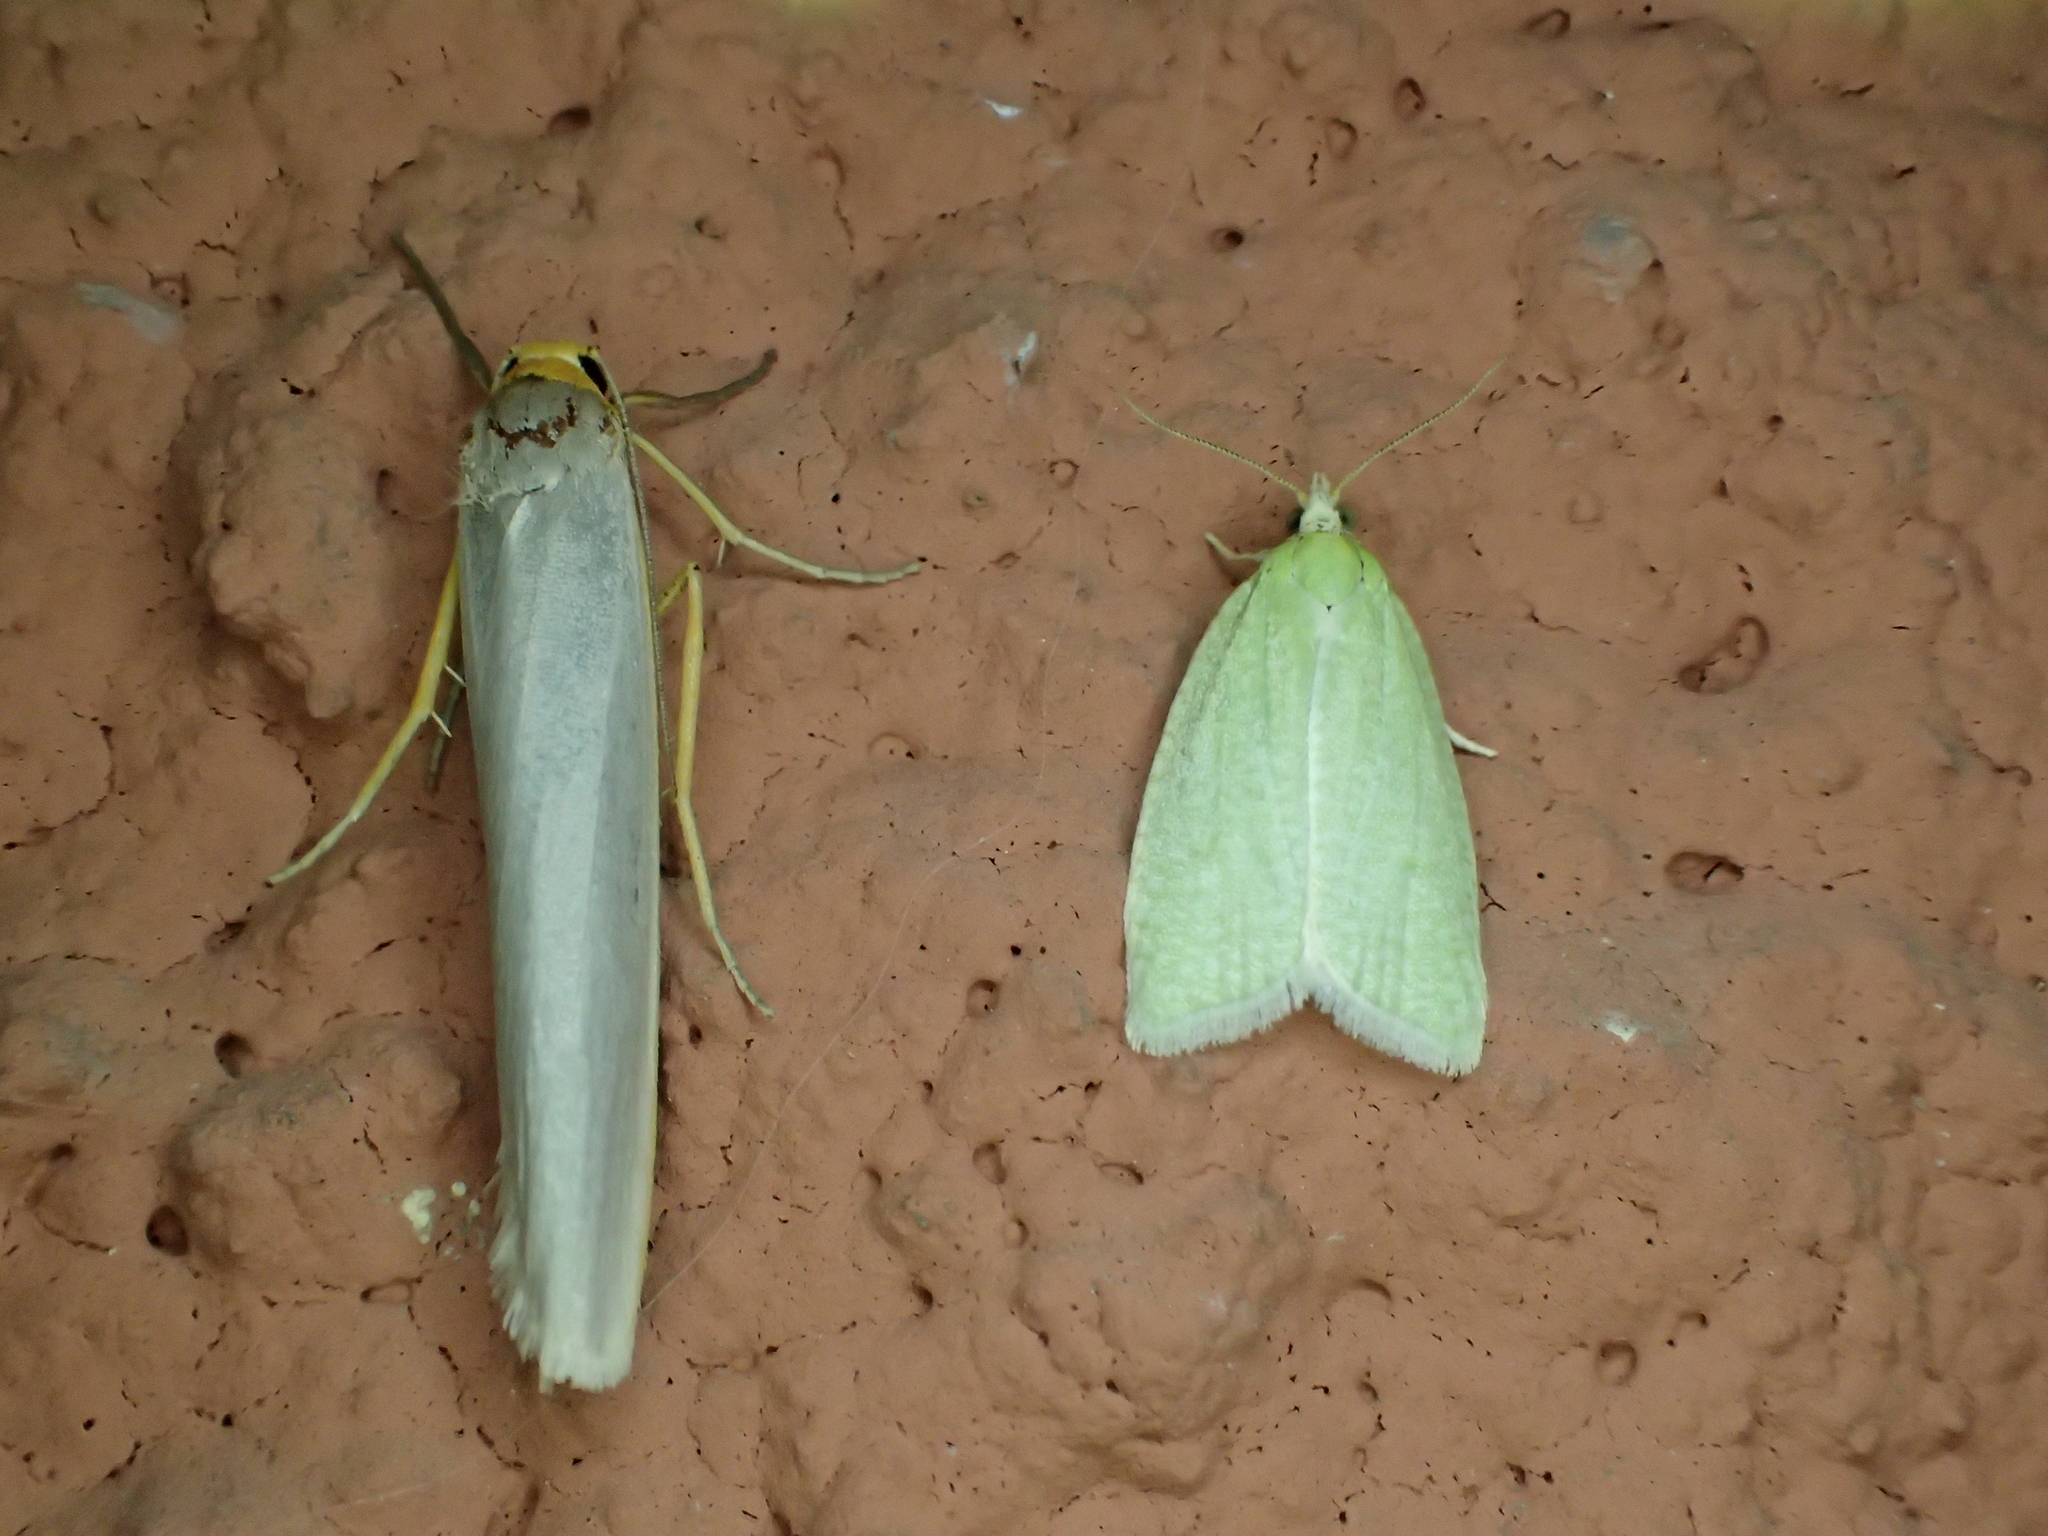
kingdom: Animalia
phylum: Arthropoda
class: Insecta
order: Lepidoptera
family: Tortricidae
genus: Tortrix
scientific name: Tortrix viridana
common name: Green oak tortrix
